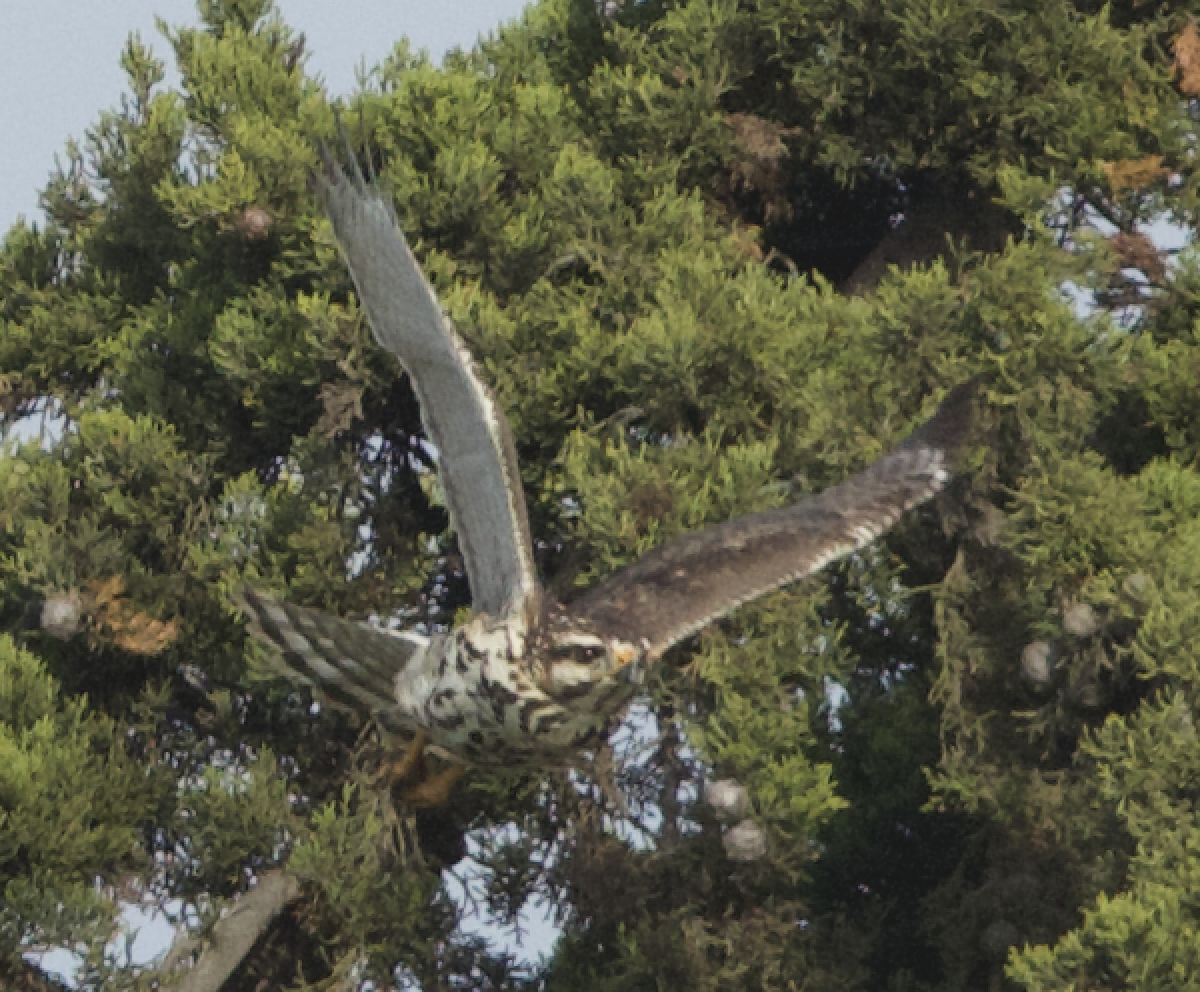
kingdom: Animalia
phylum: Chordata
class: Aves
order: Accipitriformes
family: Accipitridae
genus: Buteo
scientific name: Buteo nitidus
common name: Grey-lined hawk
